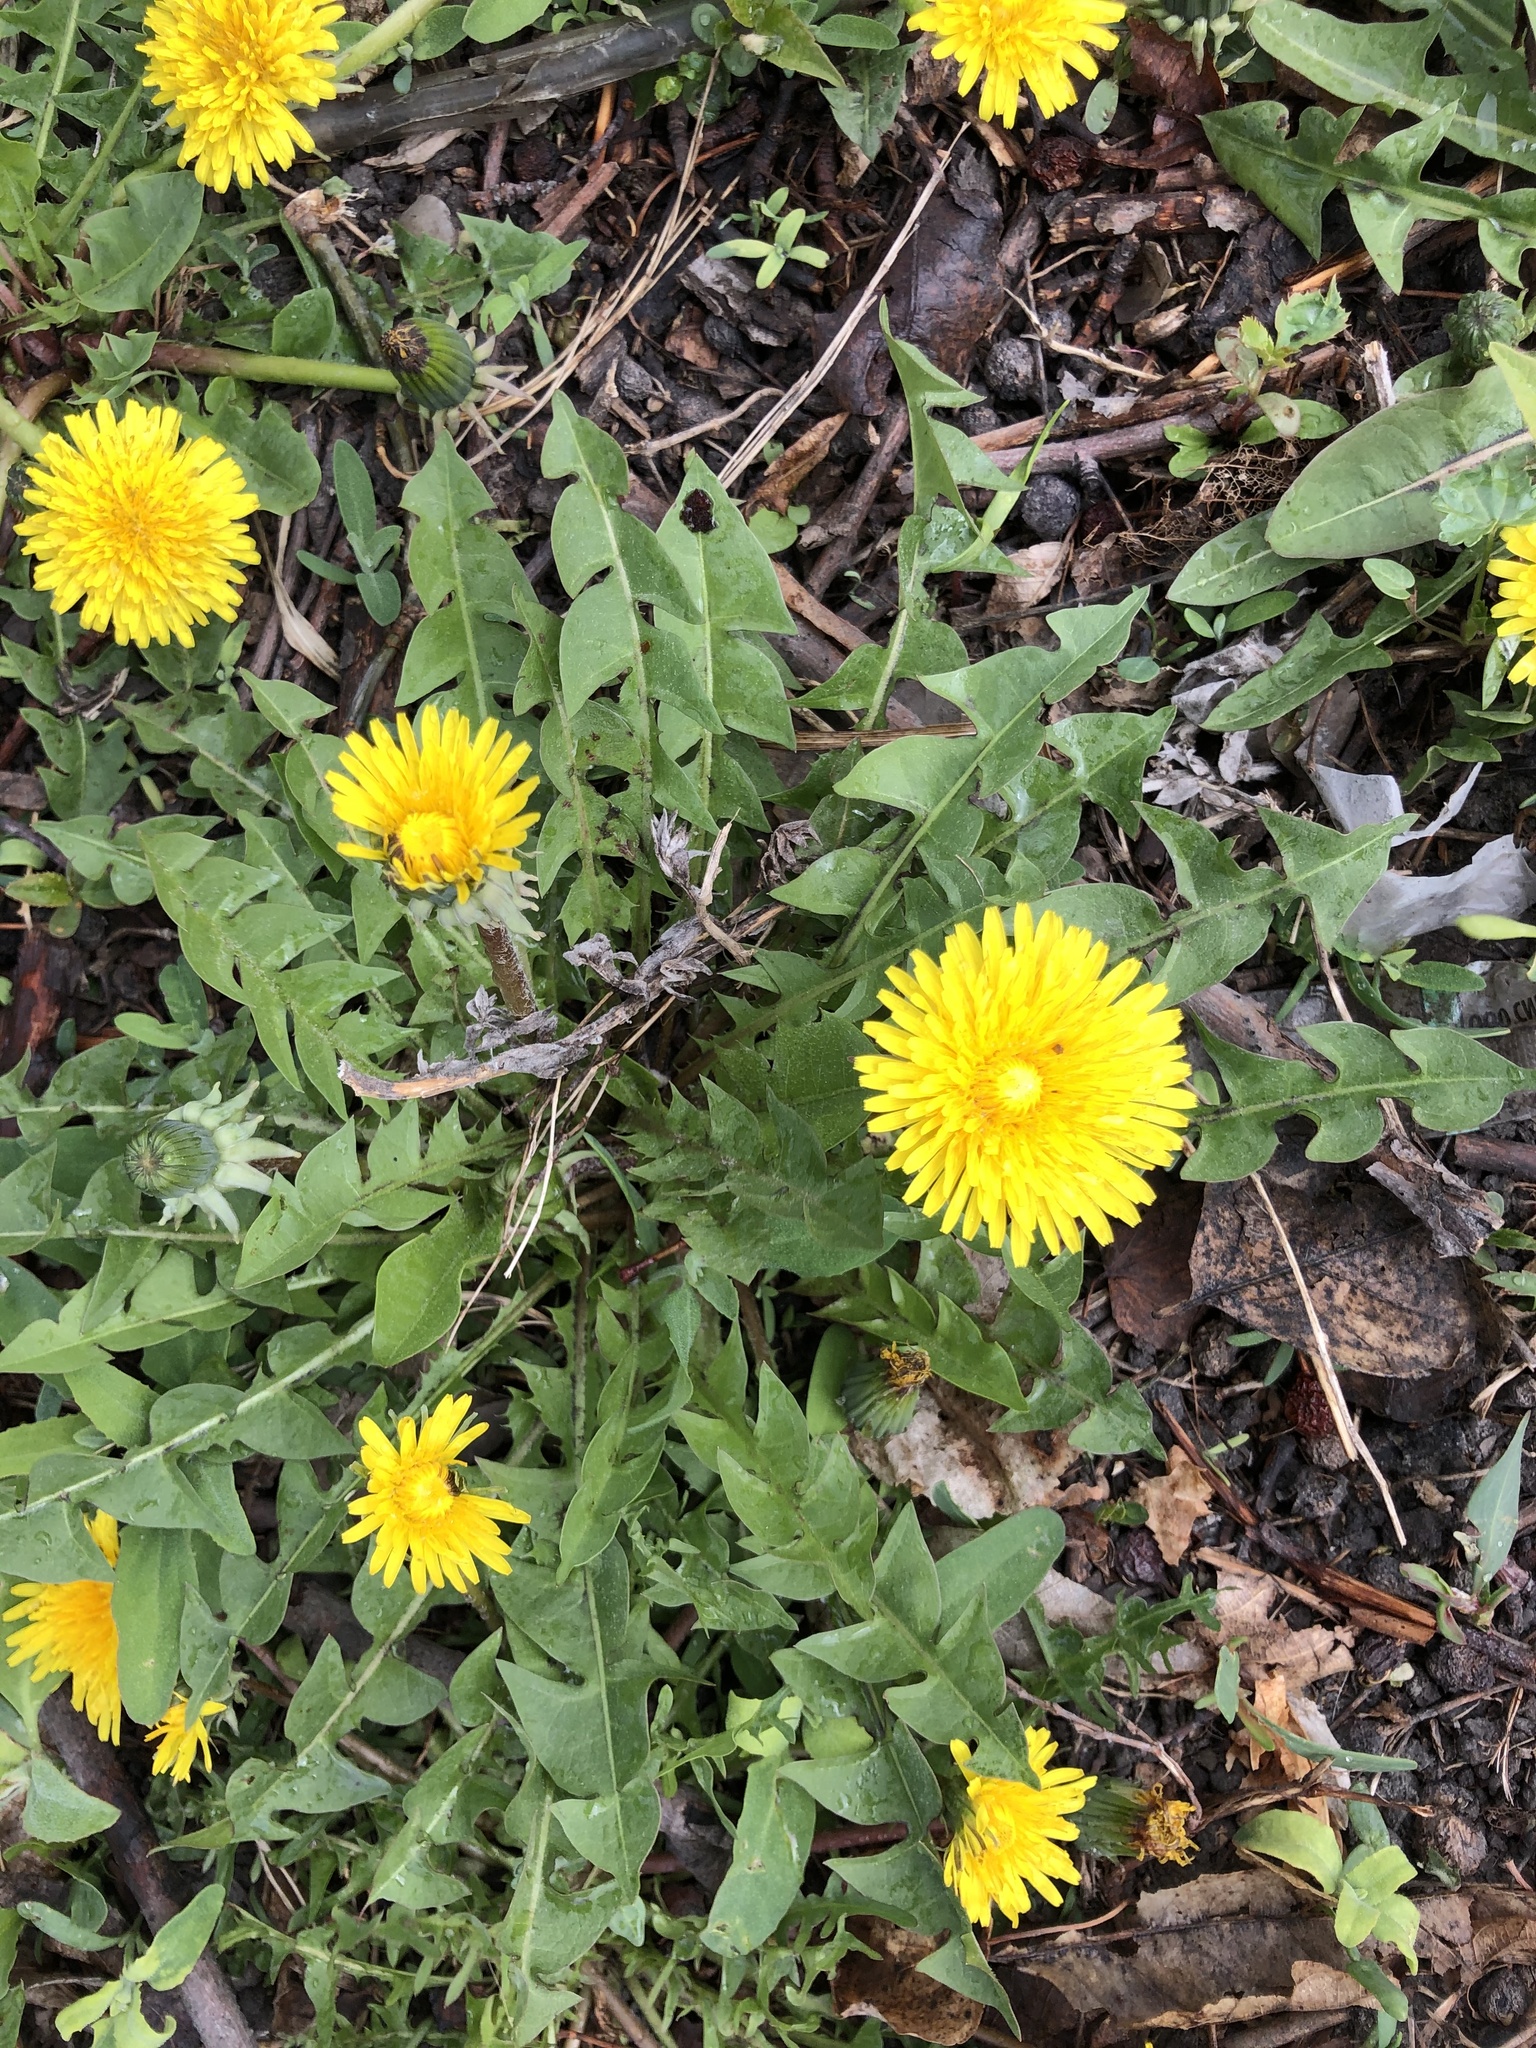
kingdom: Plantae
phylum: Tracheophyta
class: Magnoliopsida
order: Asterales
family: Asteraceae
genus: Taraxacum
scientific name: Taraxacum officinale
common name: Common dandelion
